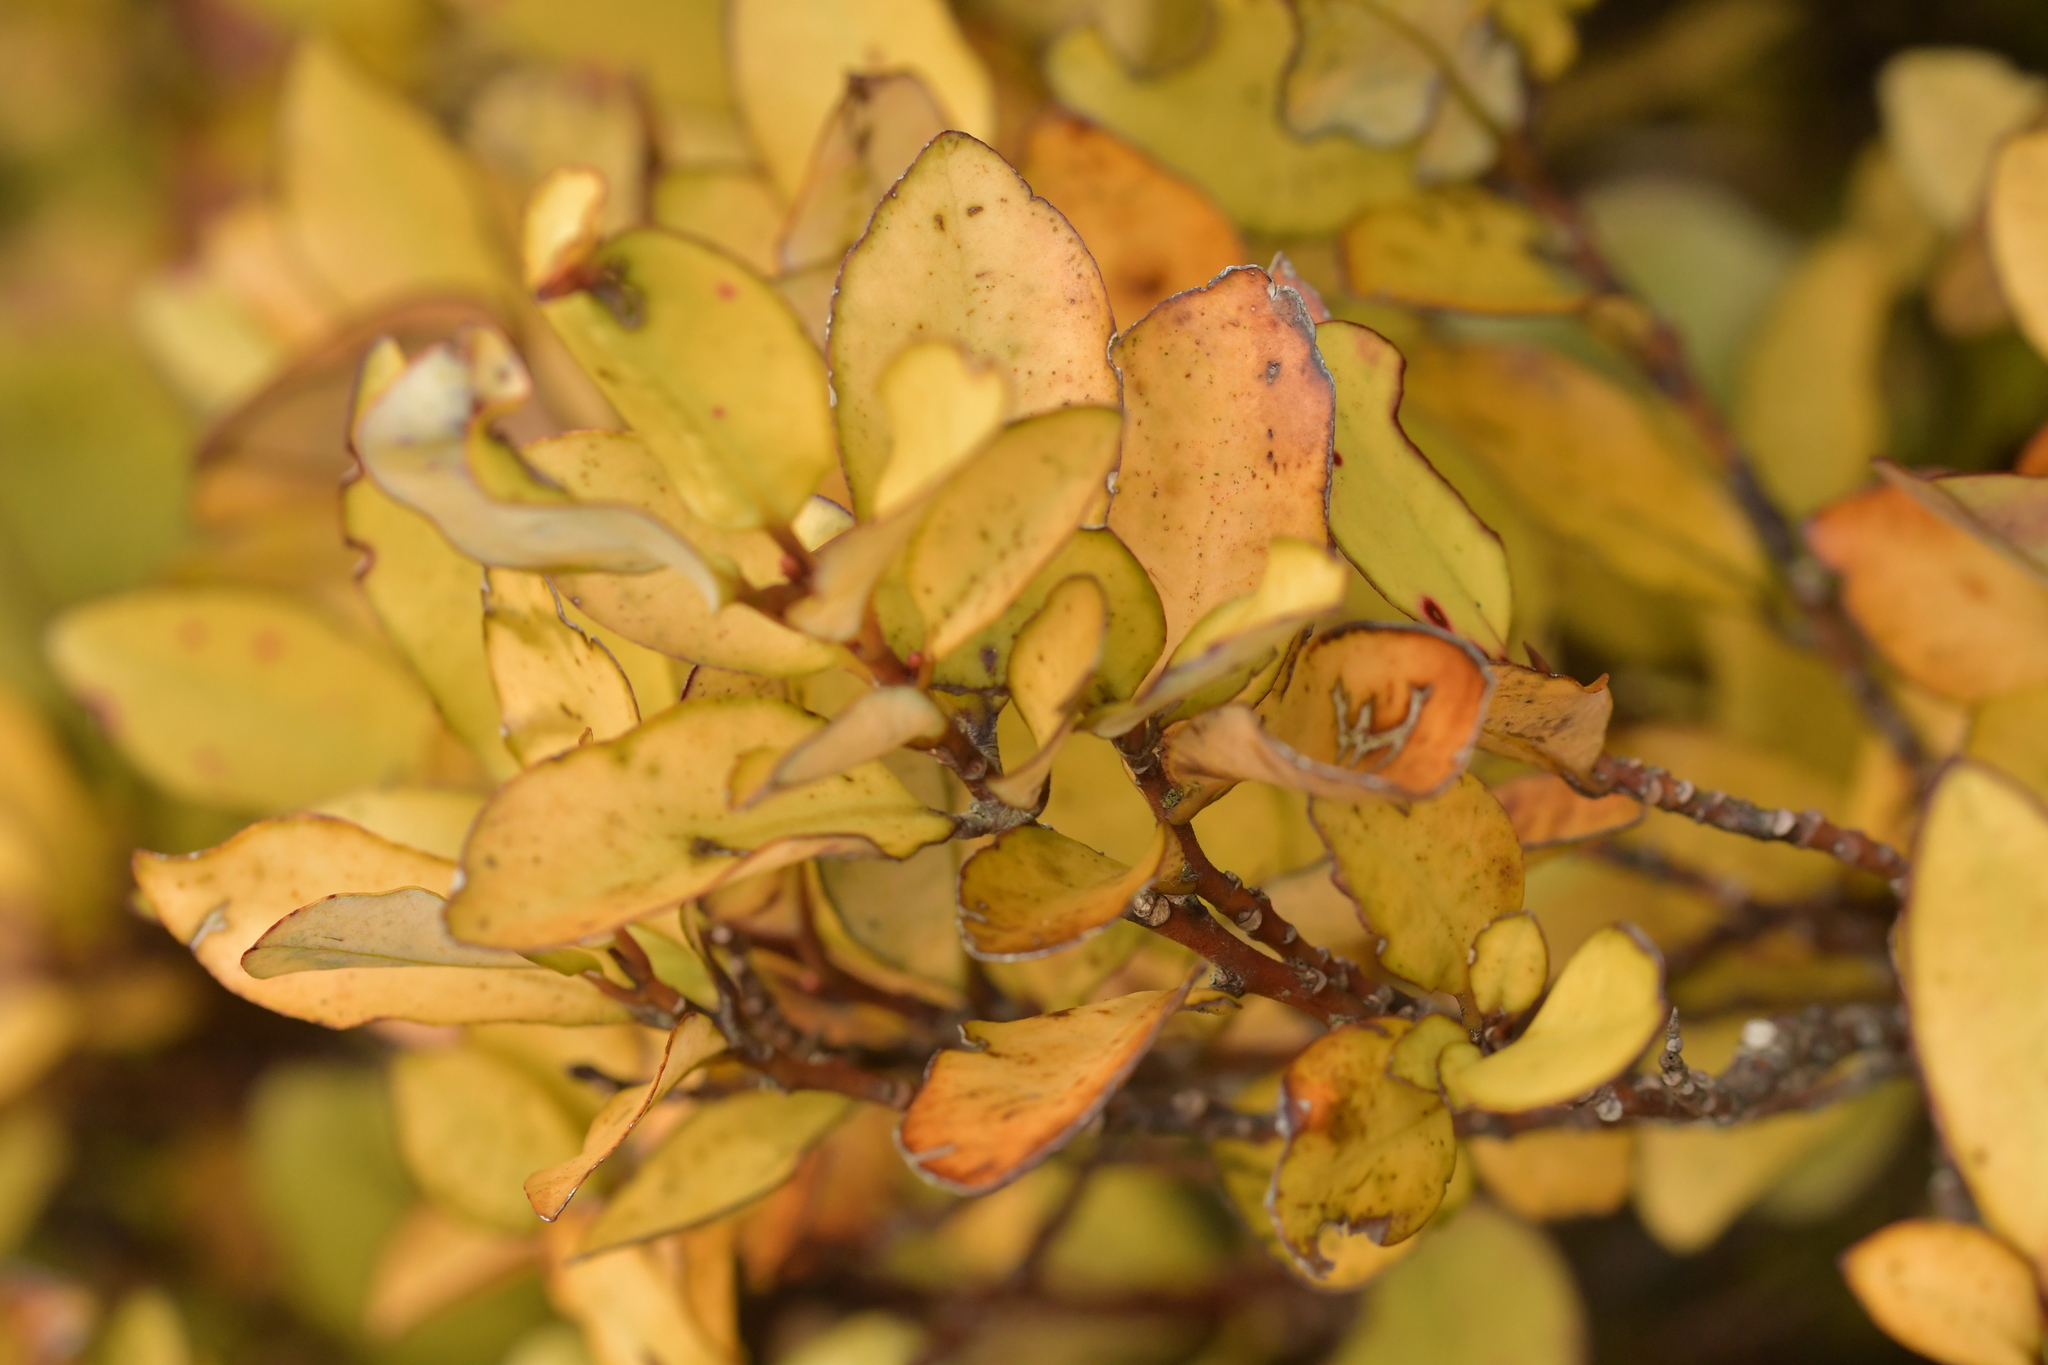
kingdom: Plantae
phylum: Tracheophyta
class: Magnoliopsida
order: Canellales
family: Winteraceae
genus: Pseudowintera
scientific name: Pseudowintera colorata
